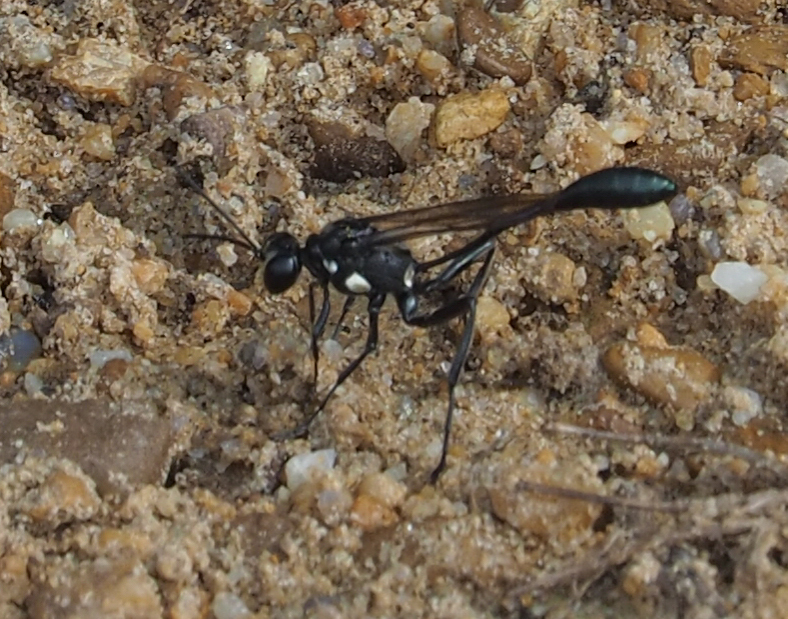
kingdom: Animalia
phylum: Arthropoda
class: Insecta
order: Hymenoptera
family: Sphecidae
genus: Eremnophila
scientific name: Eremnophila aureonotata
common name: Gold-marked thread-waisted wasp
